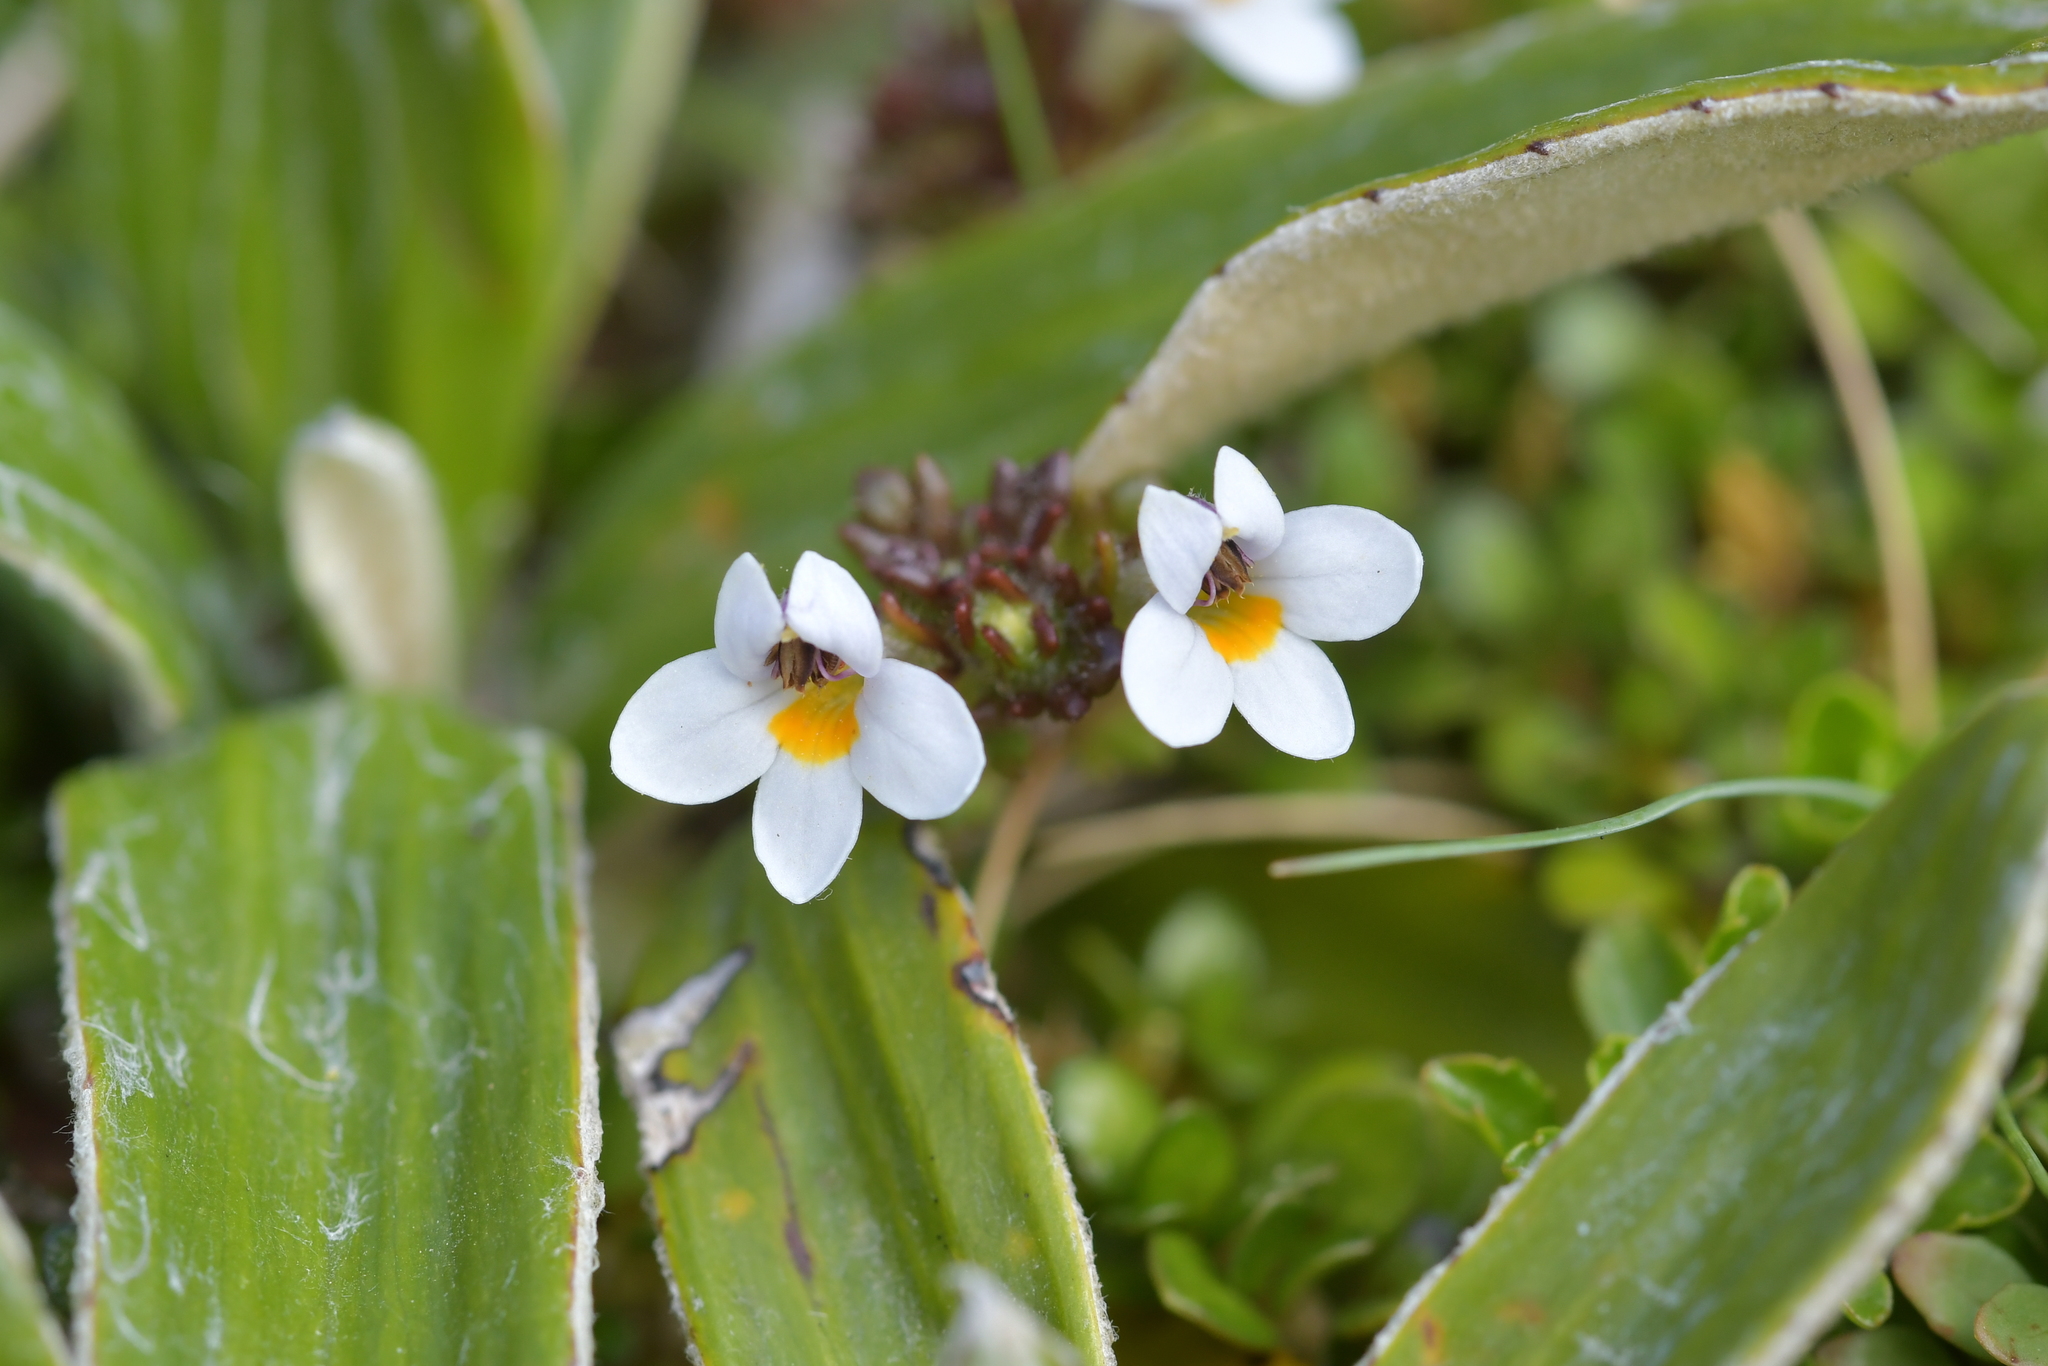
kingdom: Plantae
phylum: Tracheophyta
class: Magnoliopsida
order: Lamiales
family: Orobanchaceae
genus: Euphrasia
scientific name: Euphrasia zelandica
